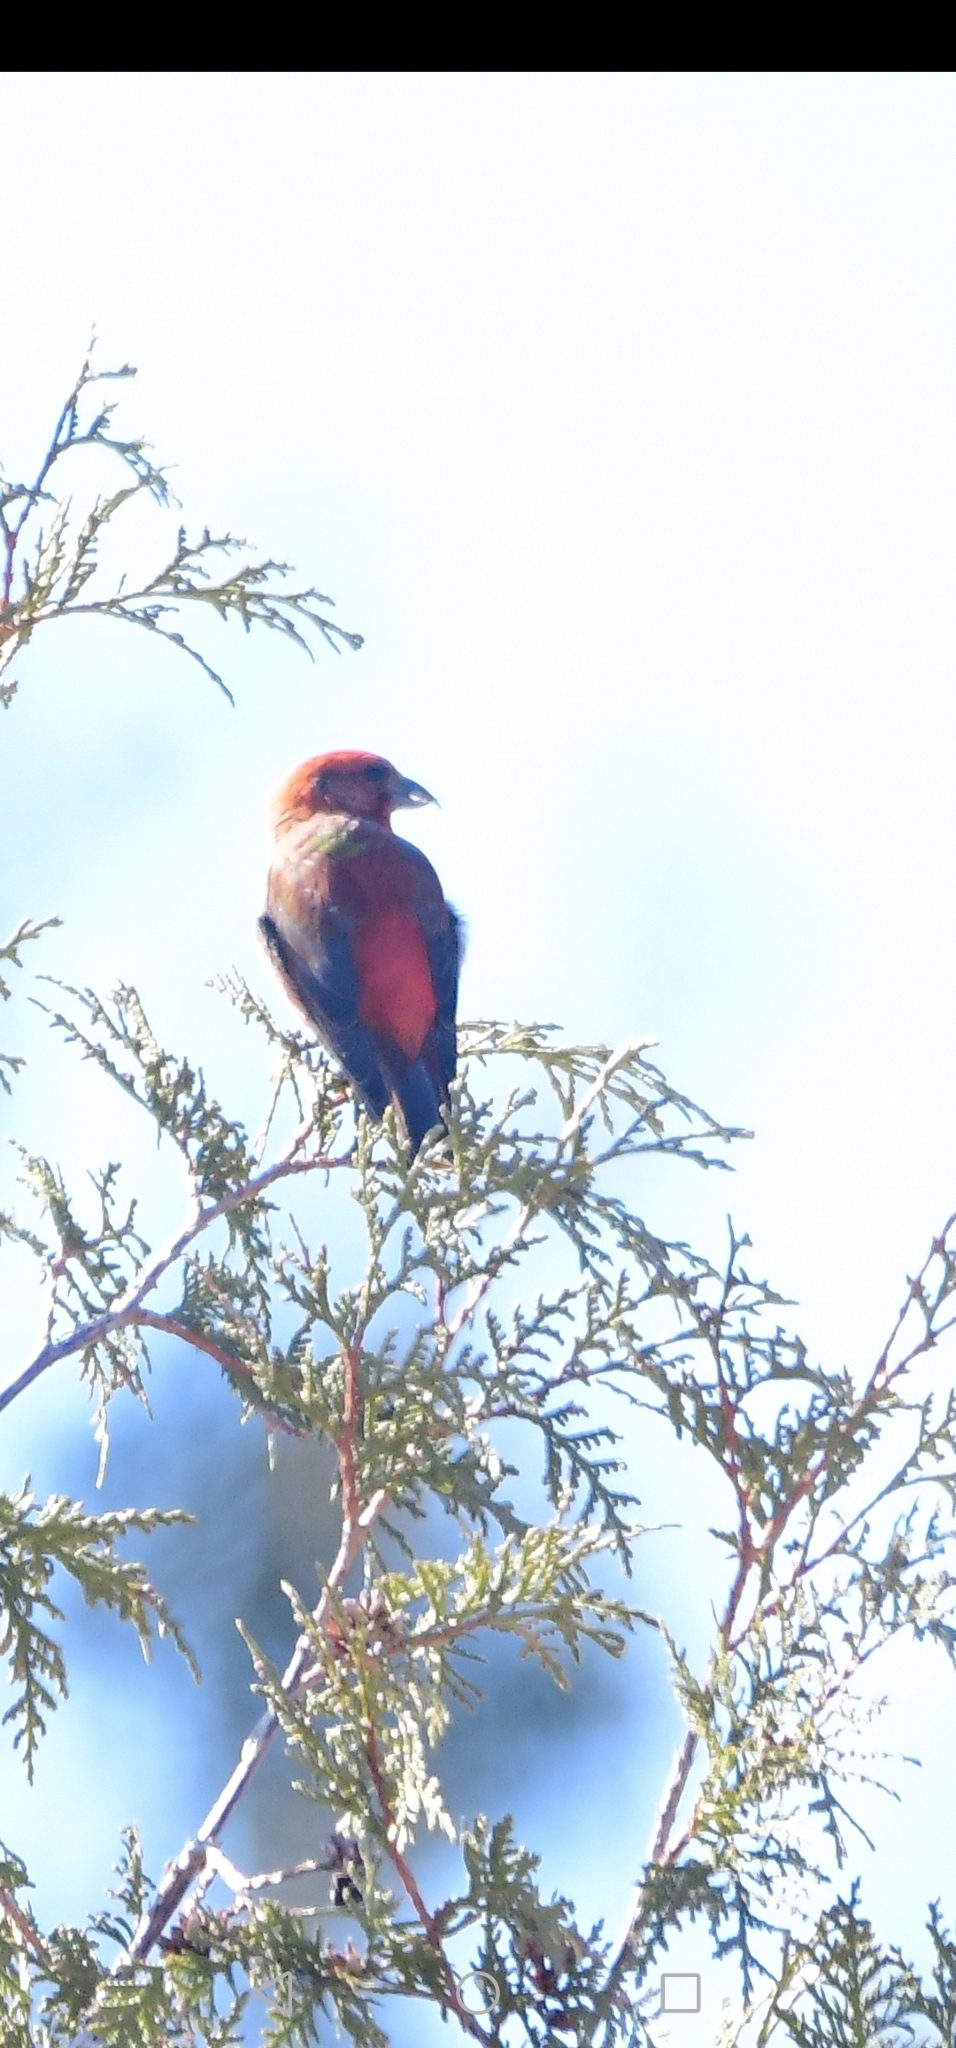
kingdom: Animalia
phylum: Chordata
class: Aves
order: Passeriformes
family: Fringillidae
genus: Loxia
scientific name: Loxia curvirostra
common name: Red crossbill
